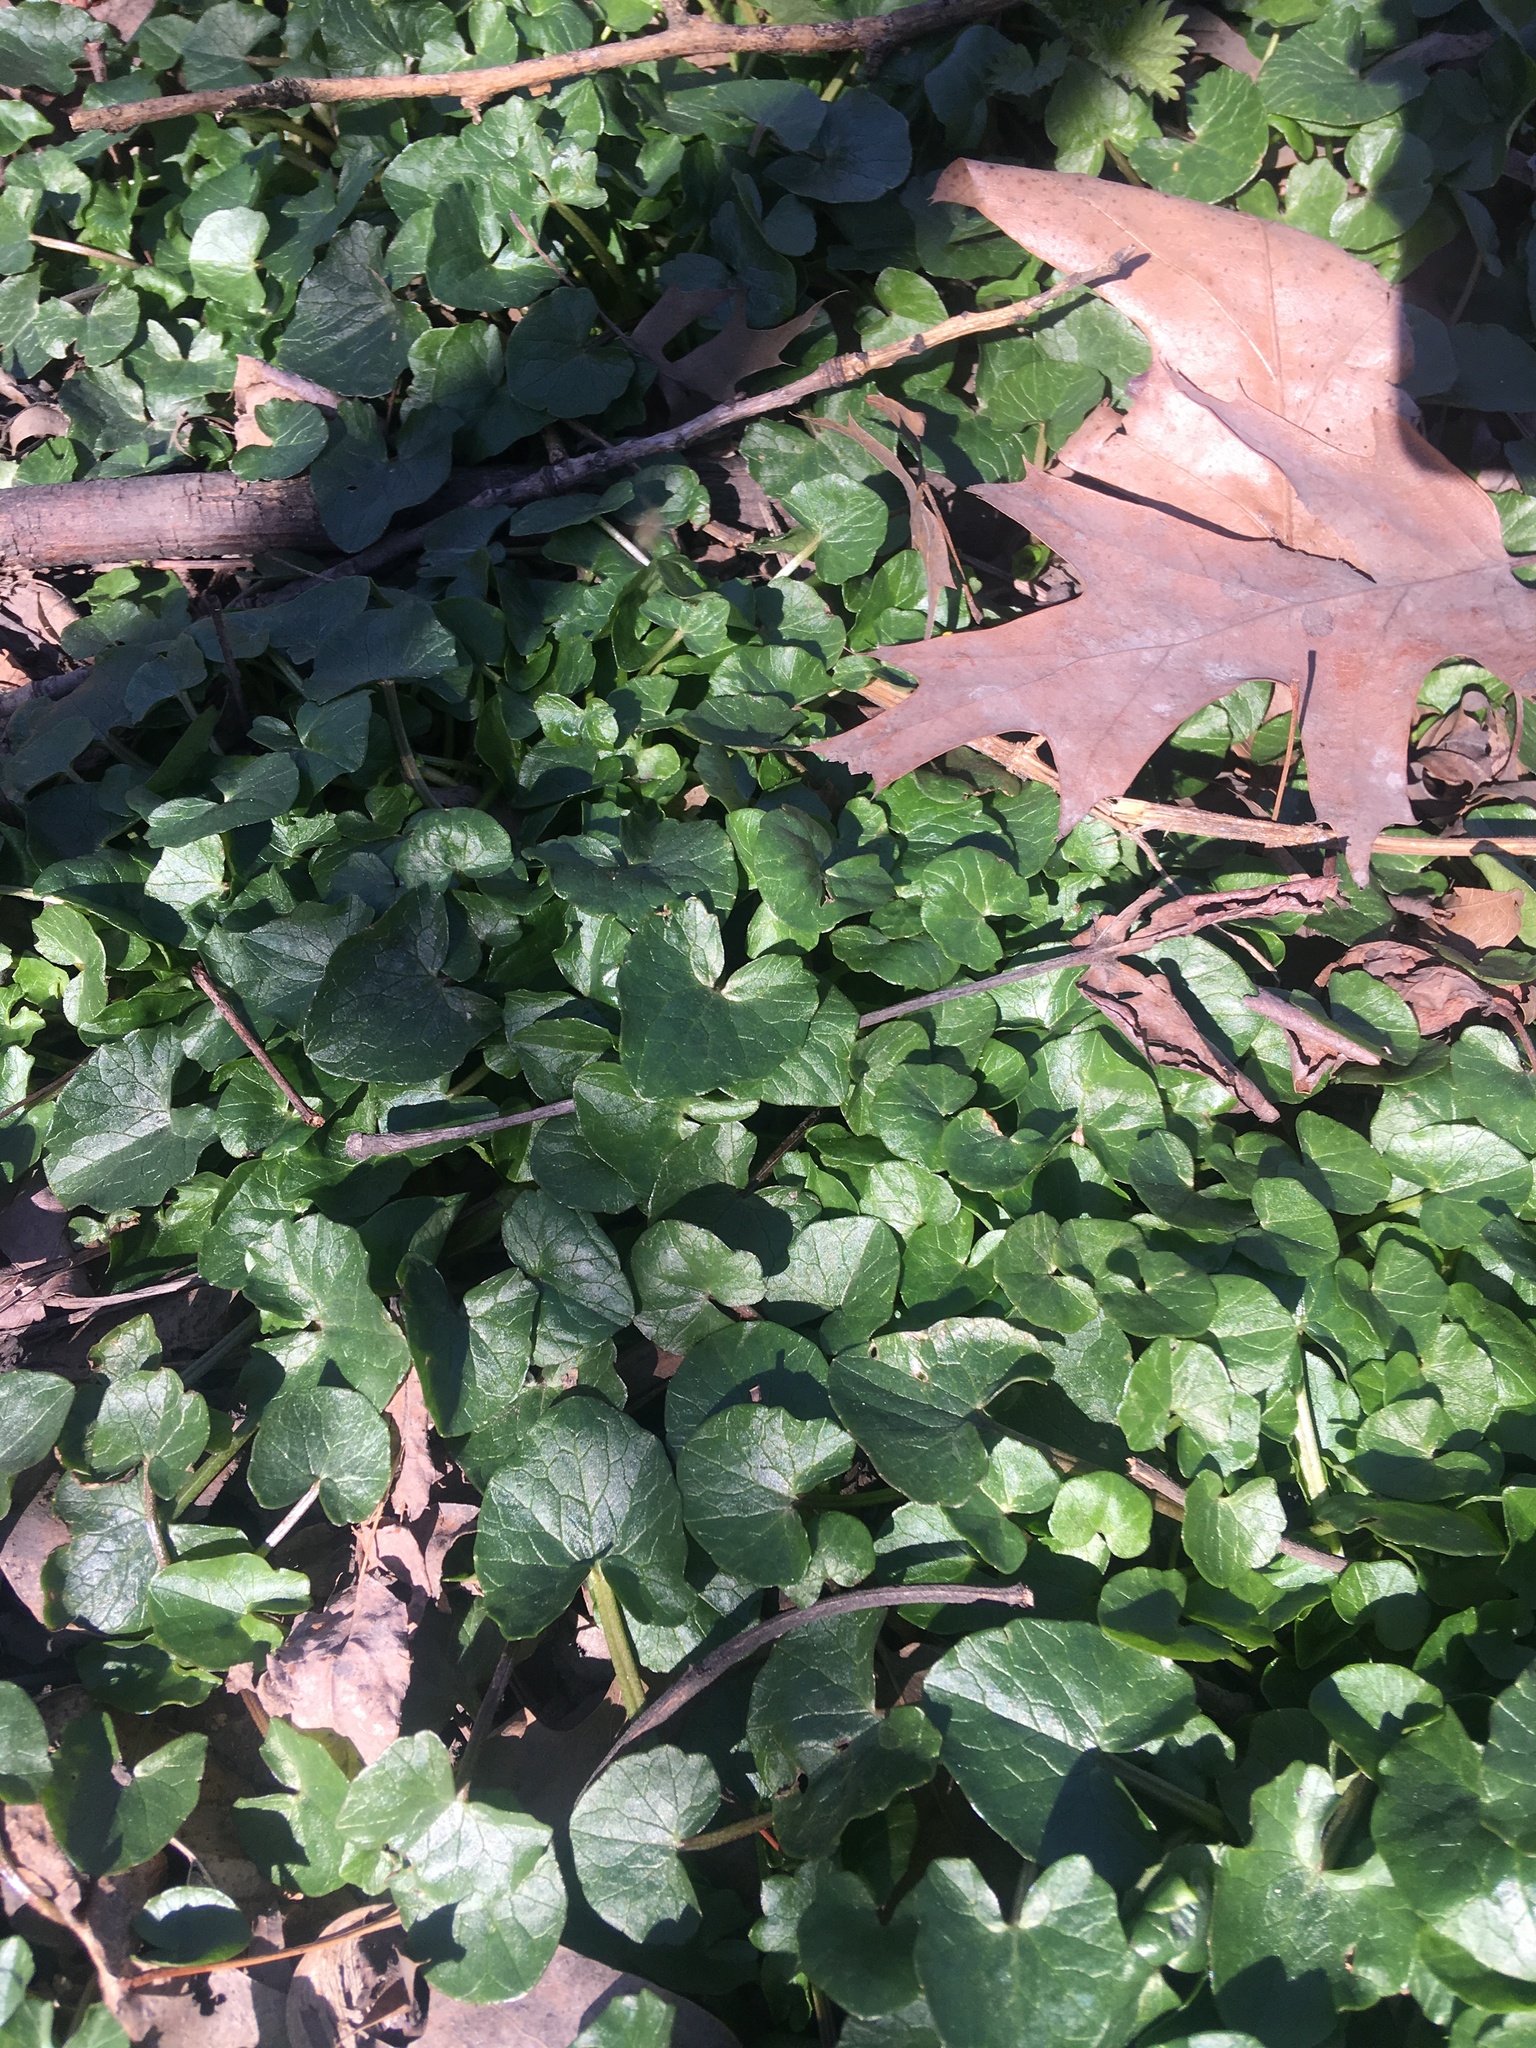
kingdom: Plantae
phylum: Tracheophyta
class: Magnoliopsida
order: Ranunculales
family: Ranunculaceae
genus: Ficaria
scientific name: Ficaria verna
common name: Lesser celandine
